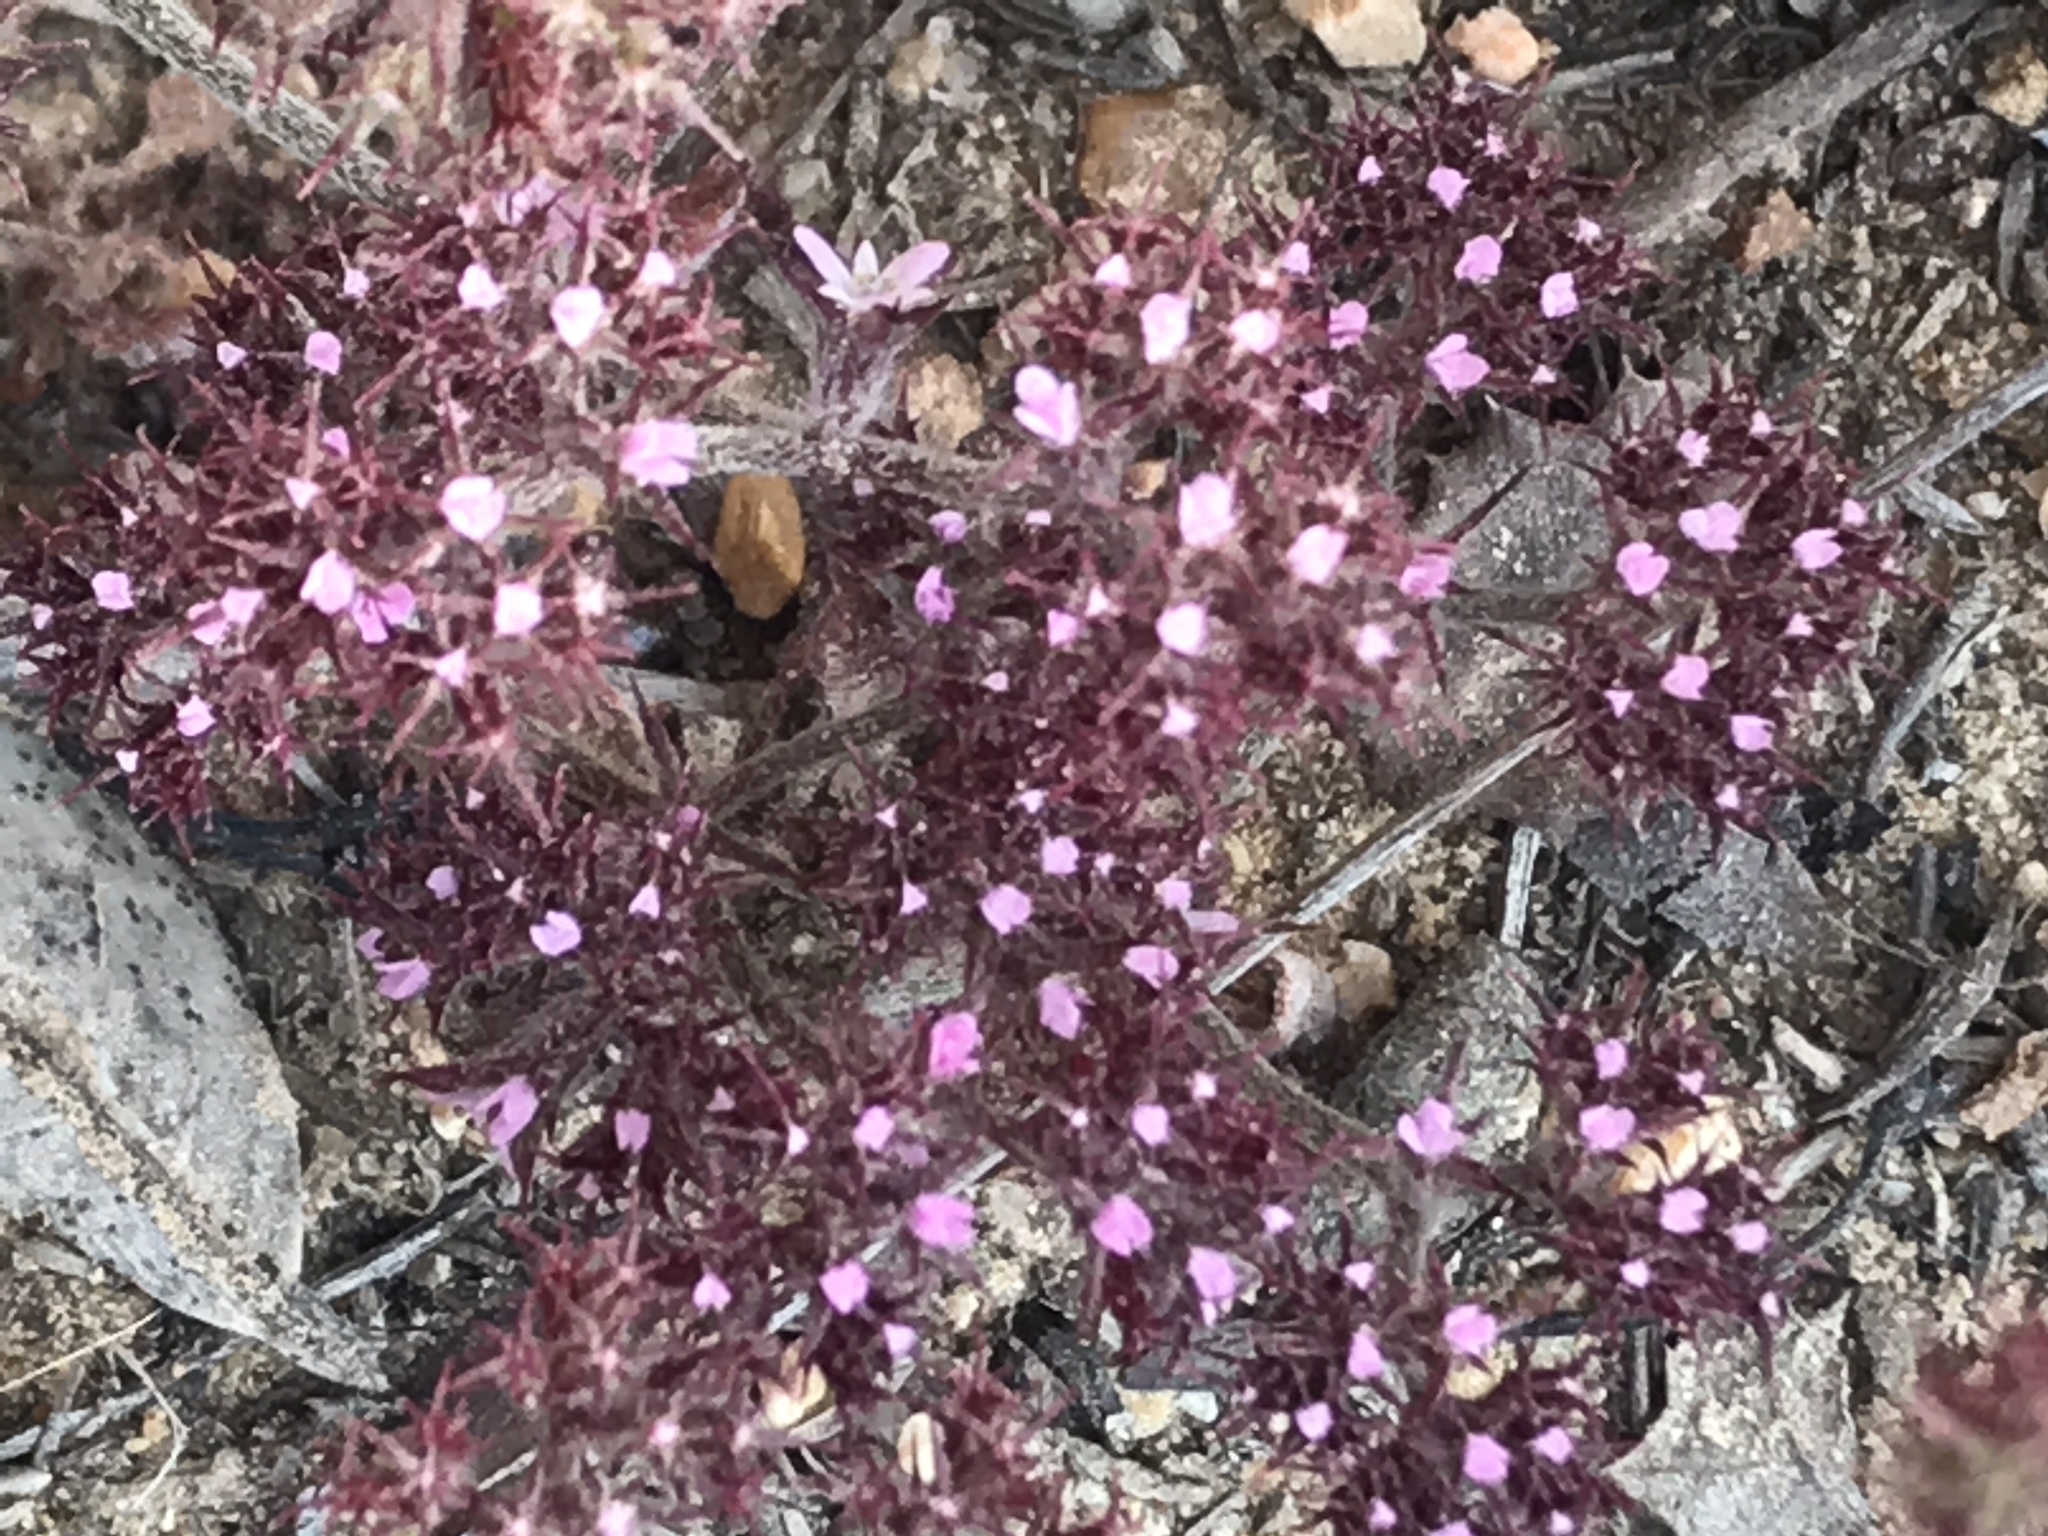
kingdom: Plantae
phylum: Tracheophyta
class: Magnoliopsida
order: Caryophyllales
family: Polygonaceae
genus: Chorizanthe
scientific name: Chorizanthe staticoides
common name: Turkish rugging
